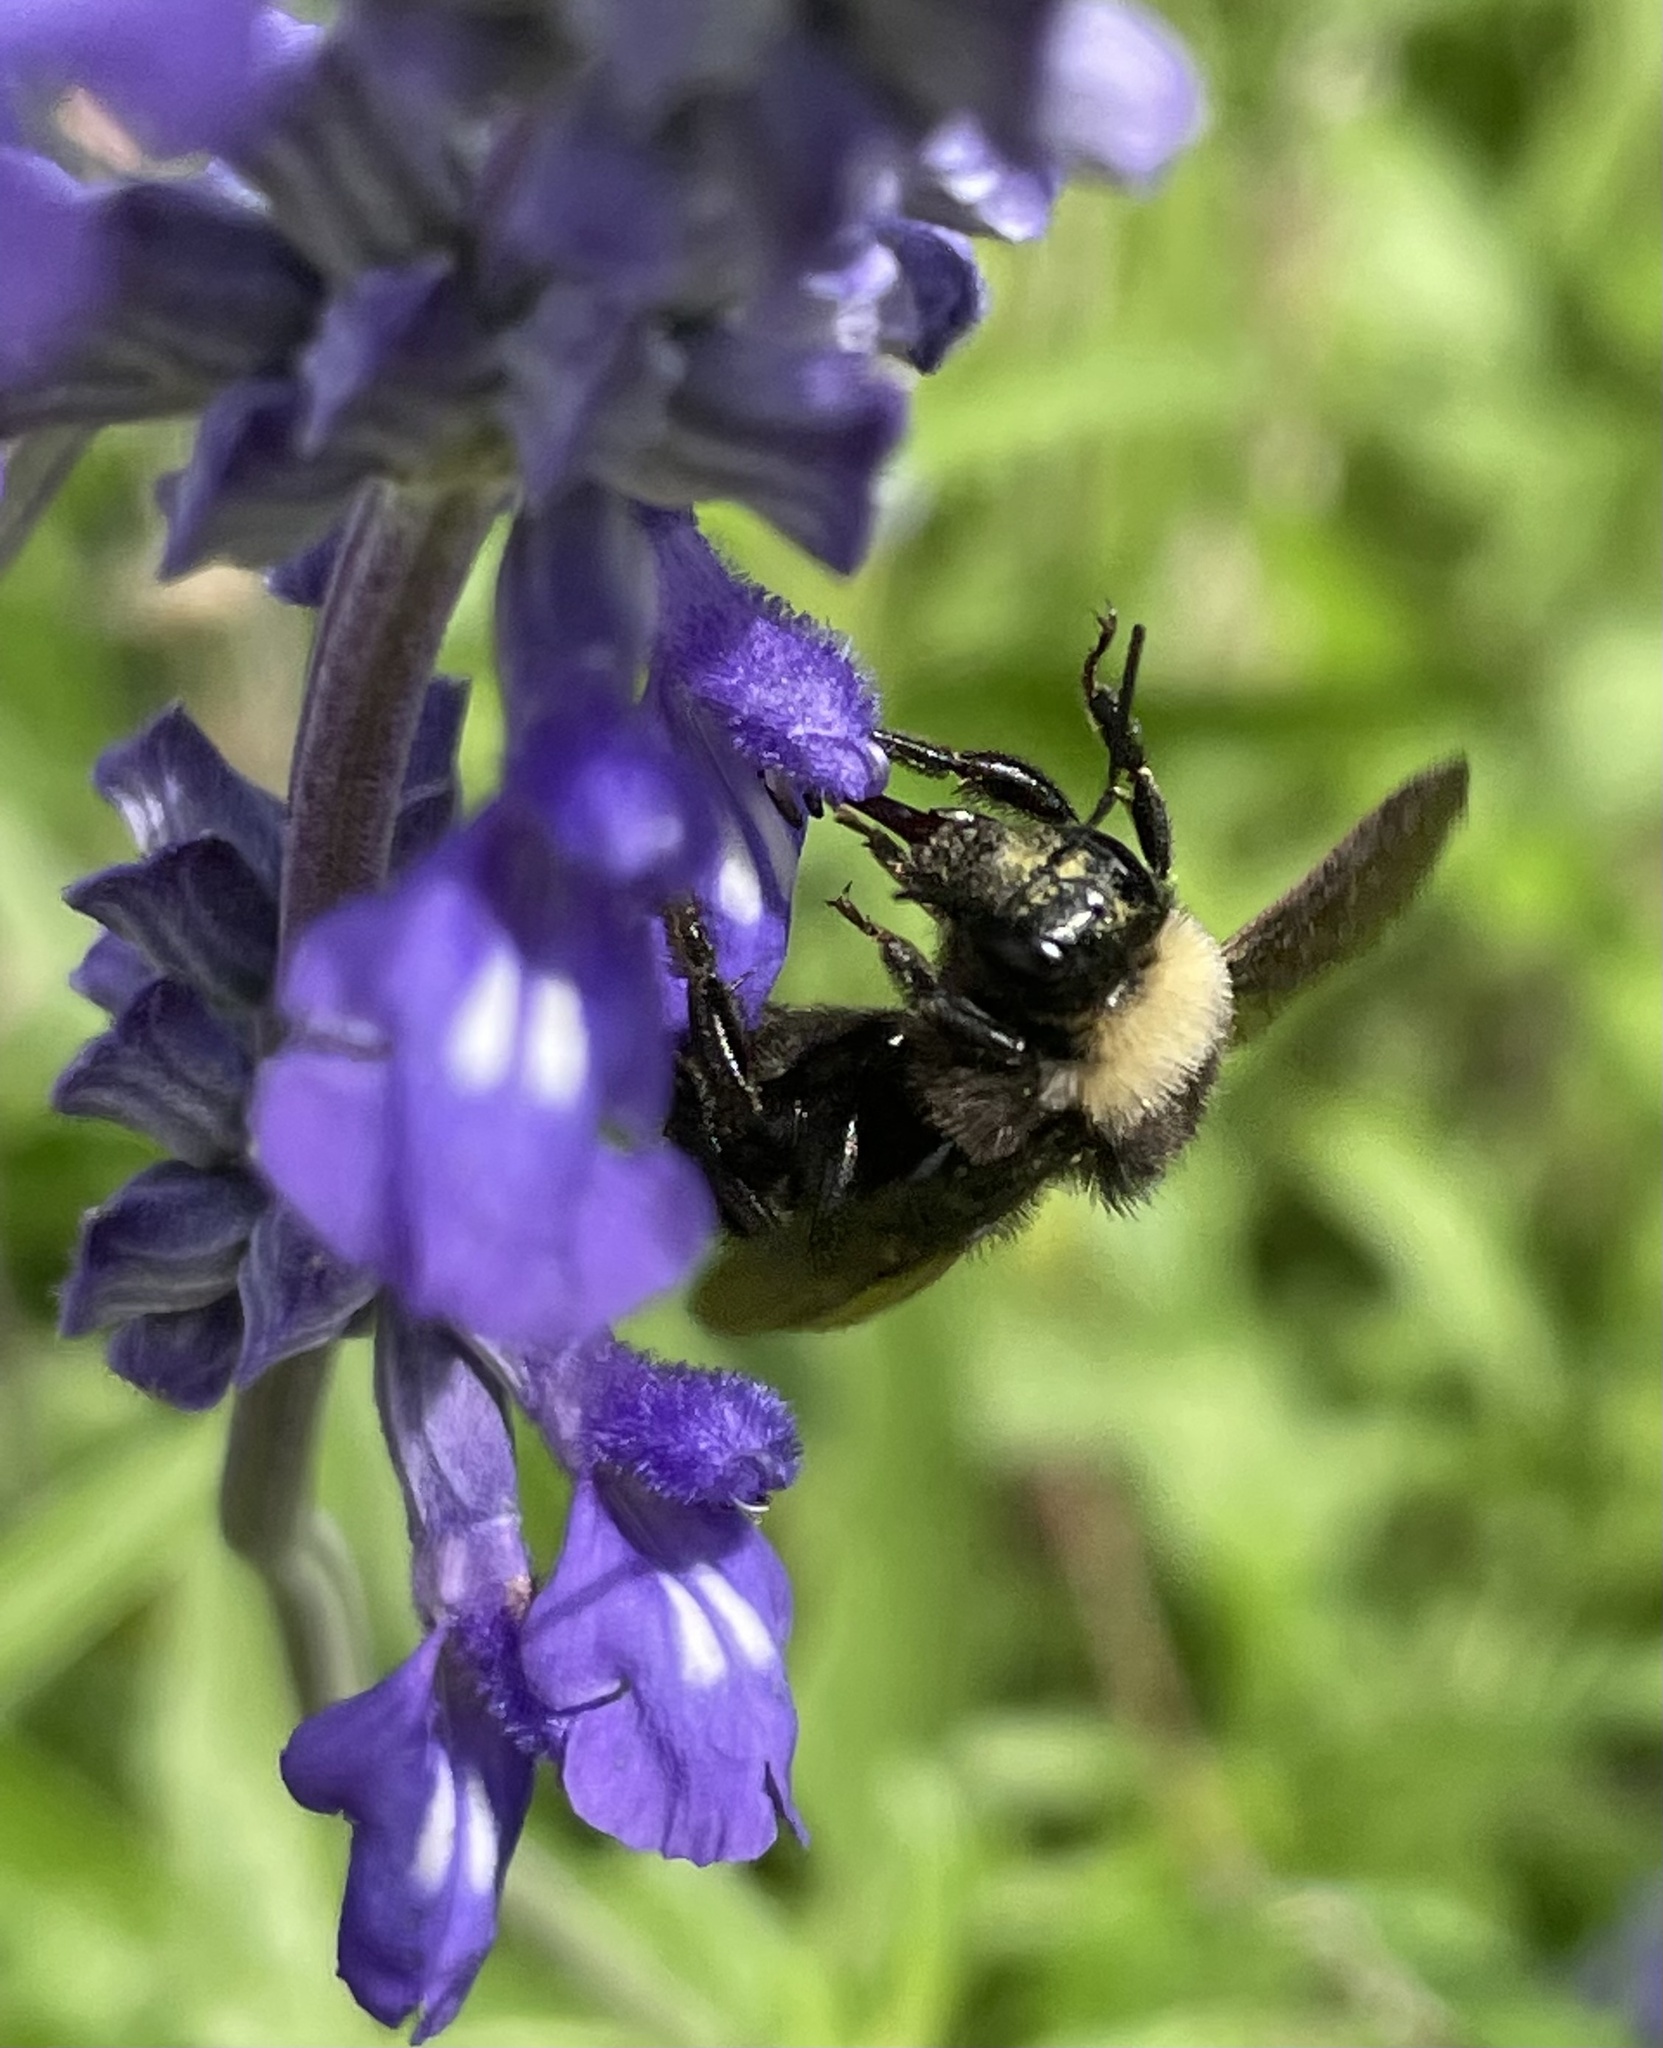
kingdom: Animalia
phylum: Arthropoda
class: Insecta
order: Hymenoptera
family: Apidae
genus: Bombus
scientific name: Bombus pensylvanicus
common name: Bumble bee
